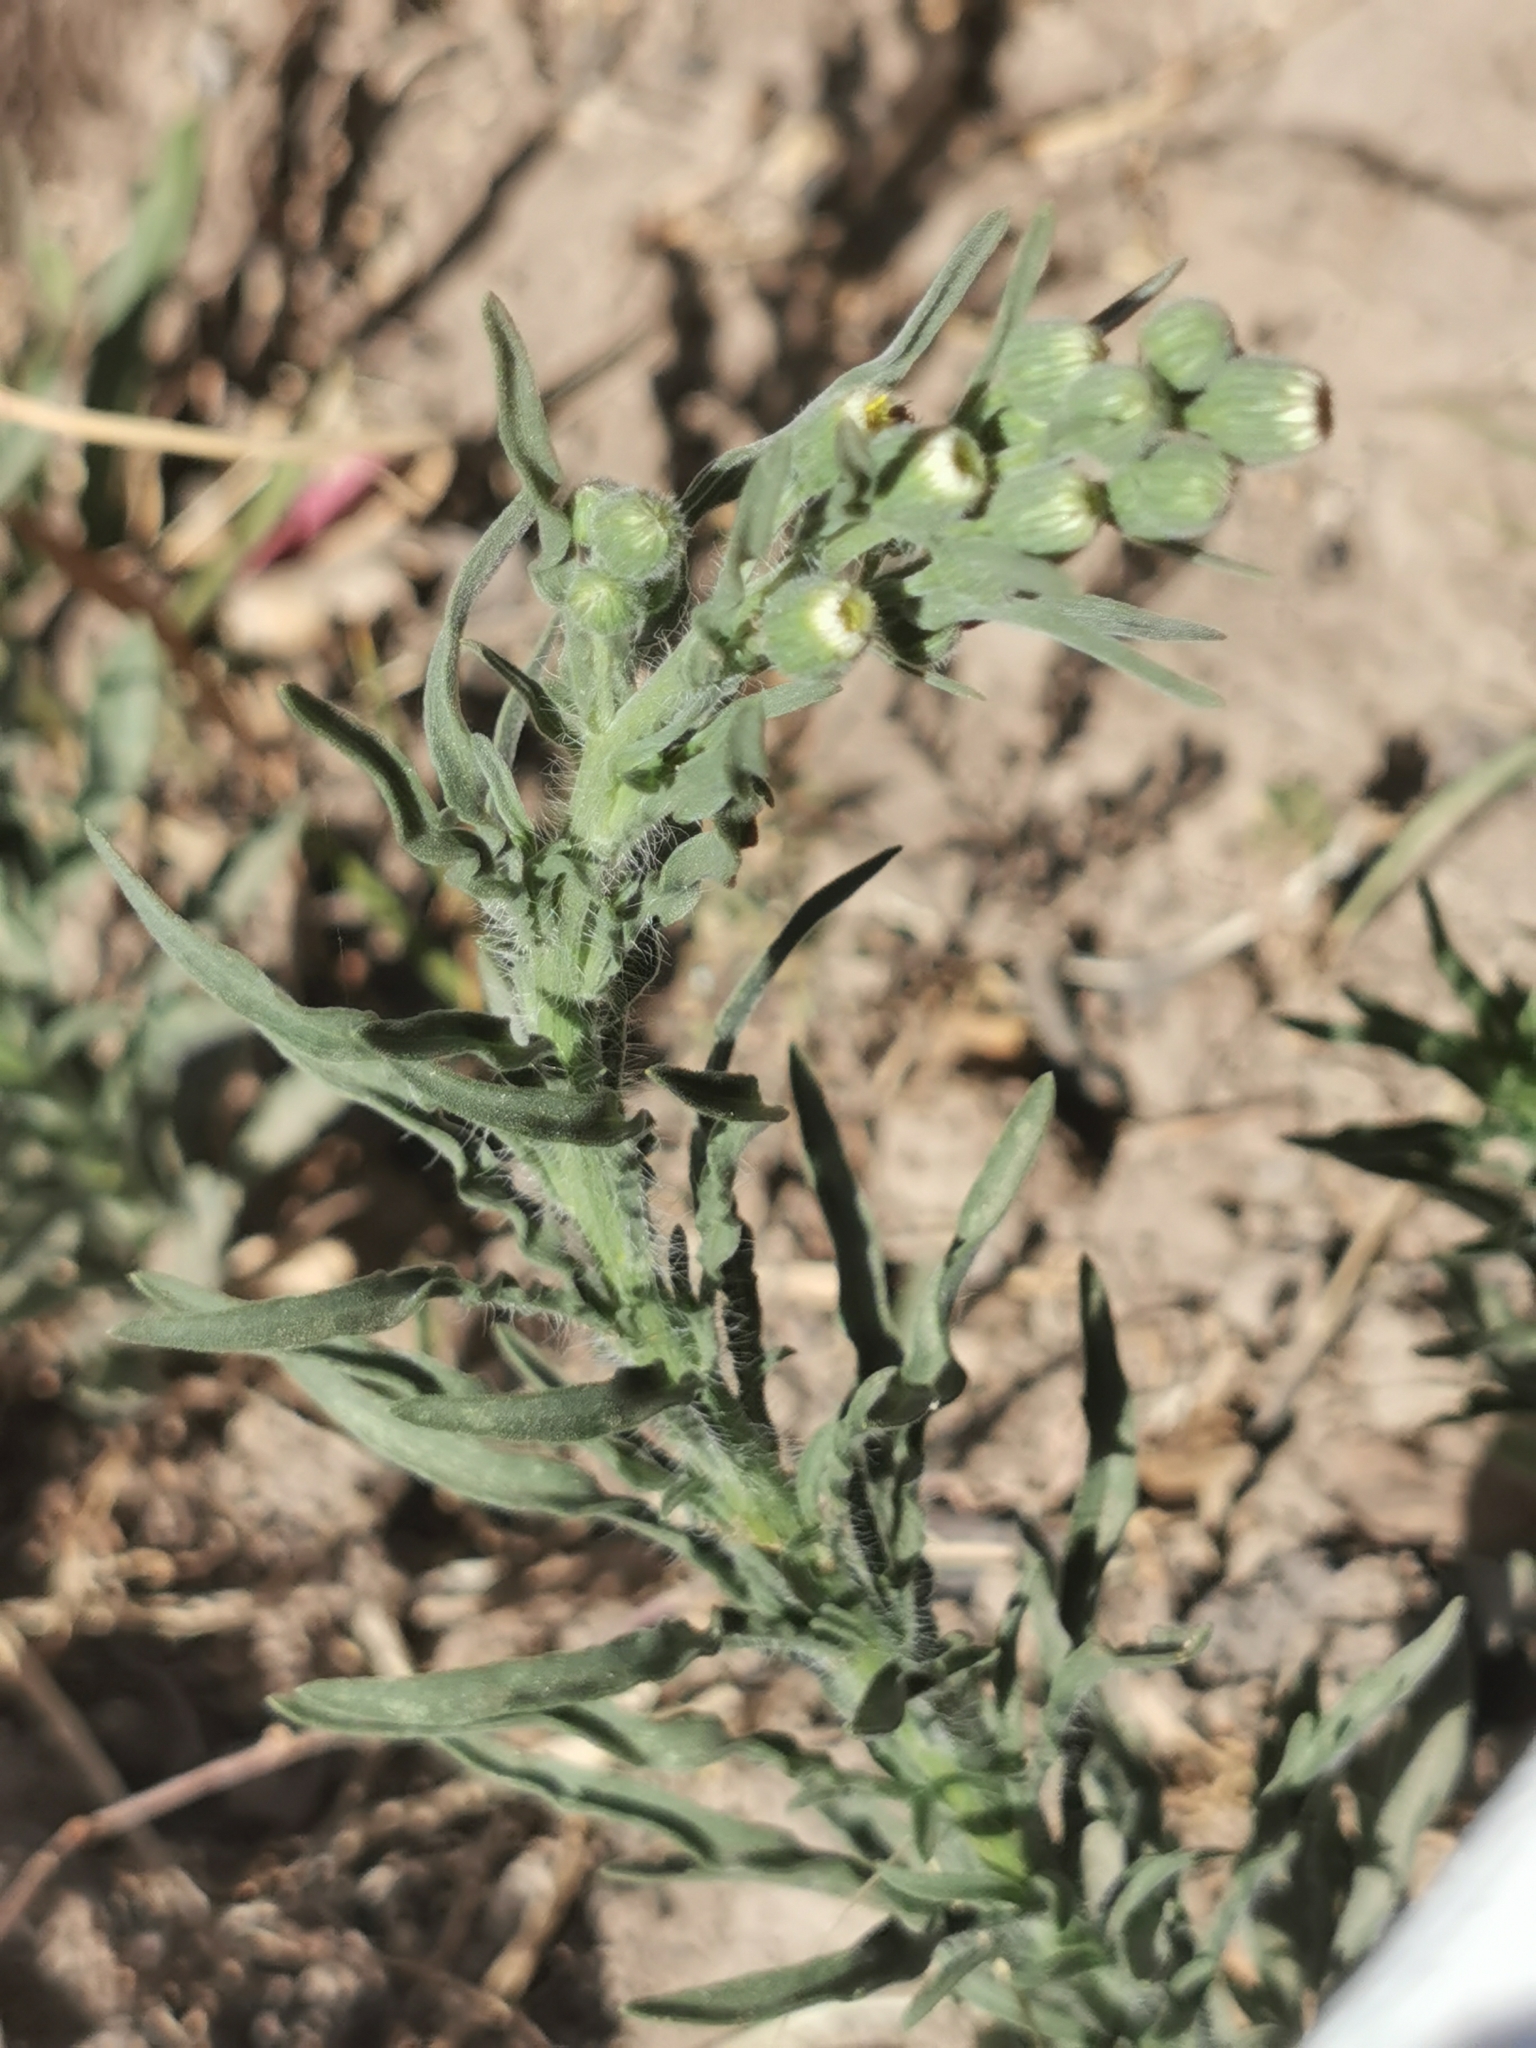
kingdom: Plantae
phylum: Tracheophyta
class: Magnoliopsida
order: Asterales
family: Asteraceae
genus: Laennecia
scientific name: Laennecia coulteri
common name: Coulter's woolwort
